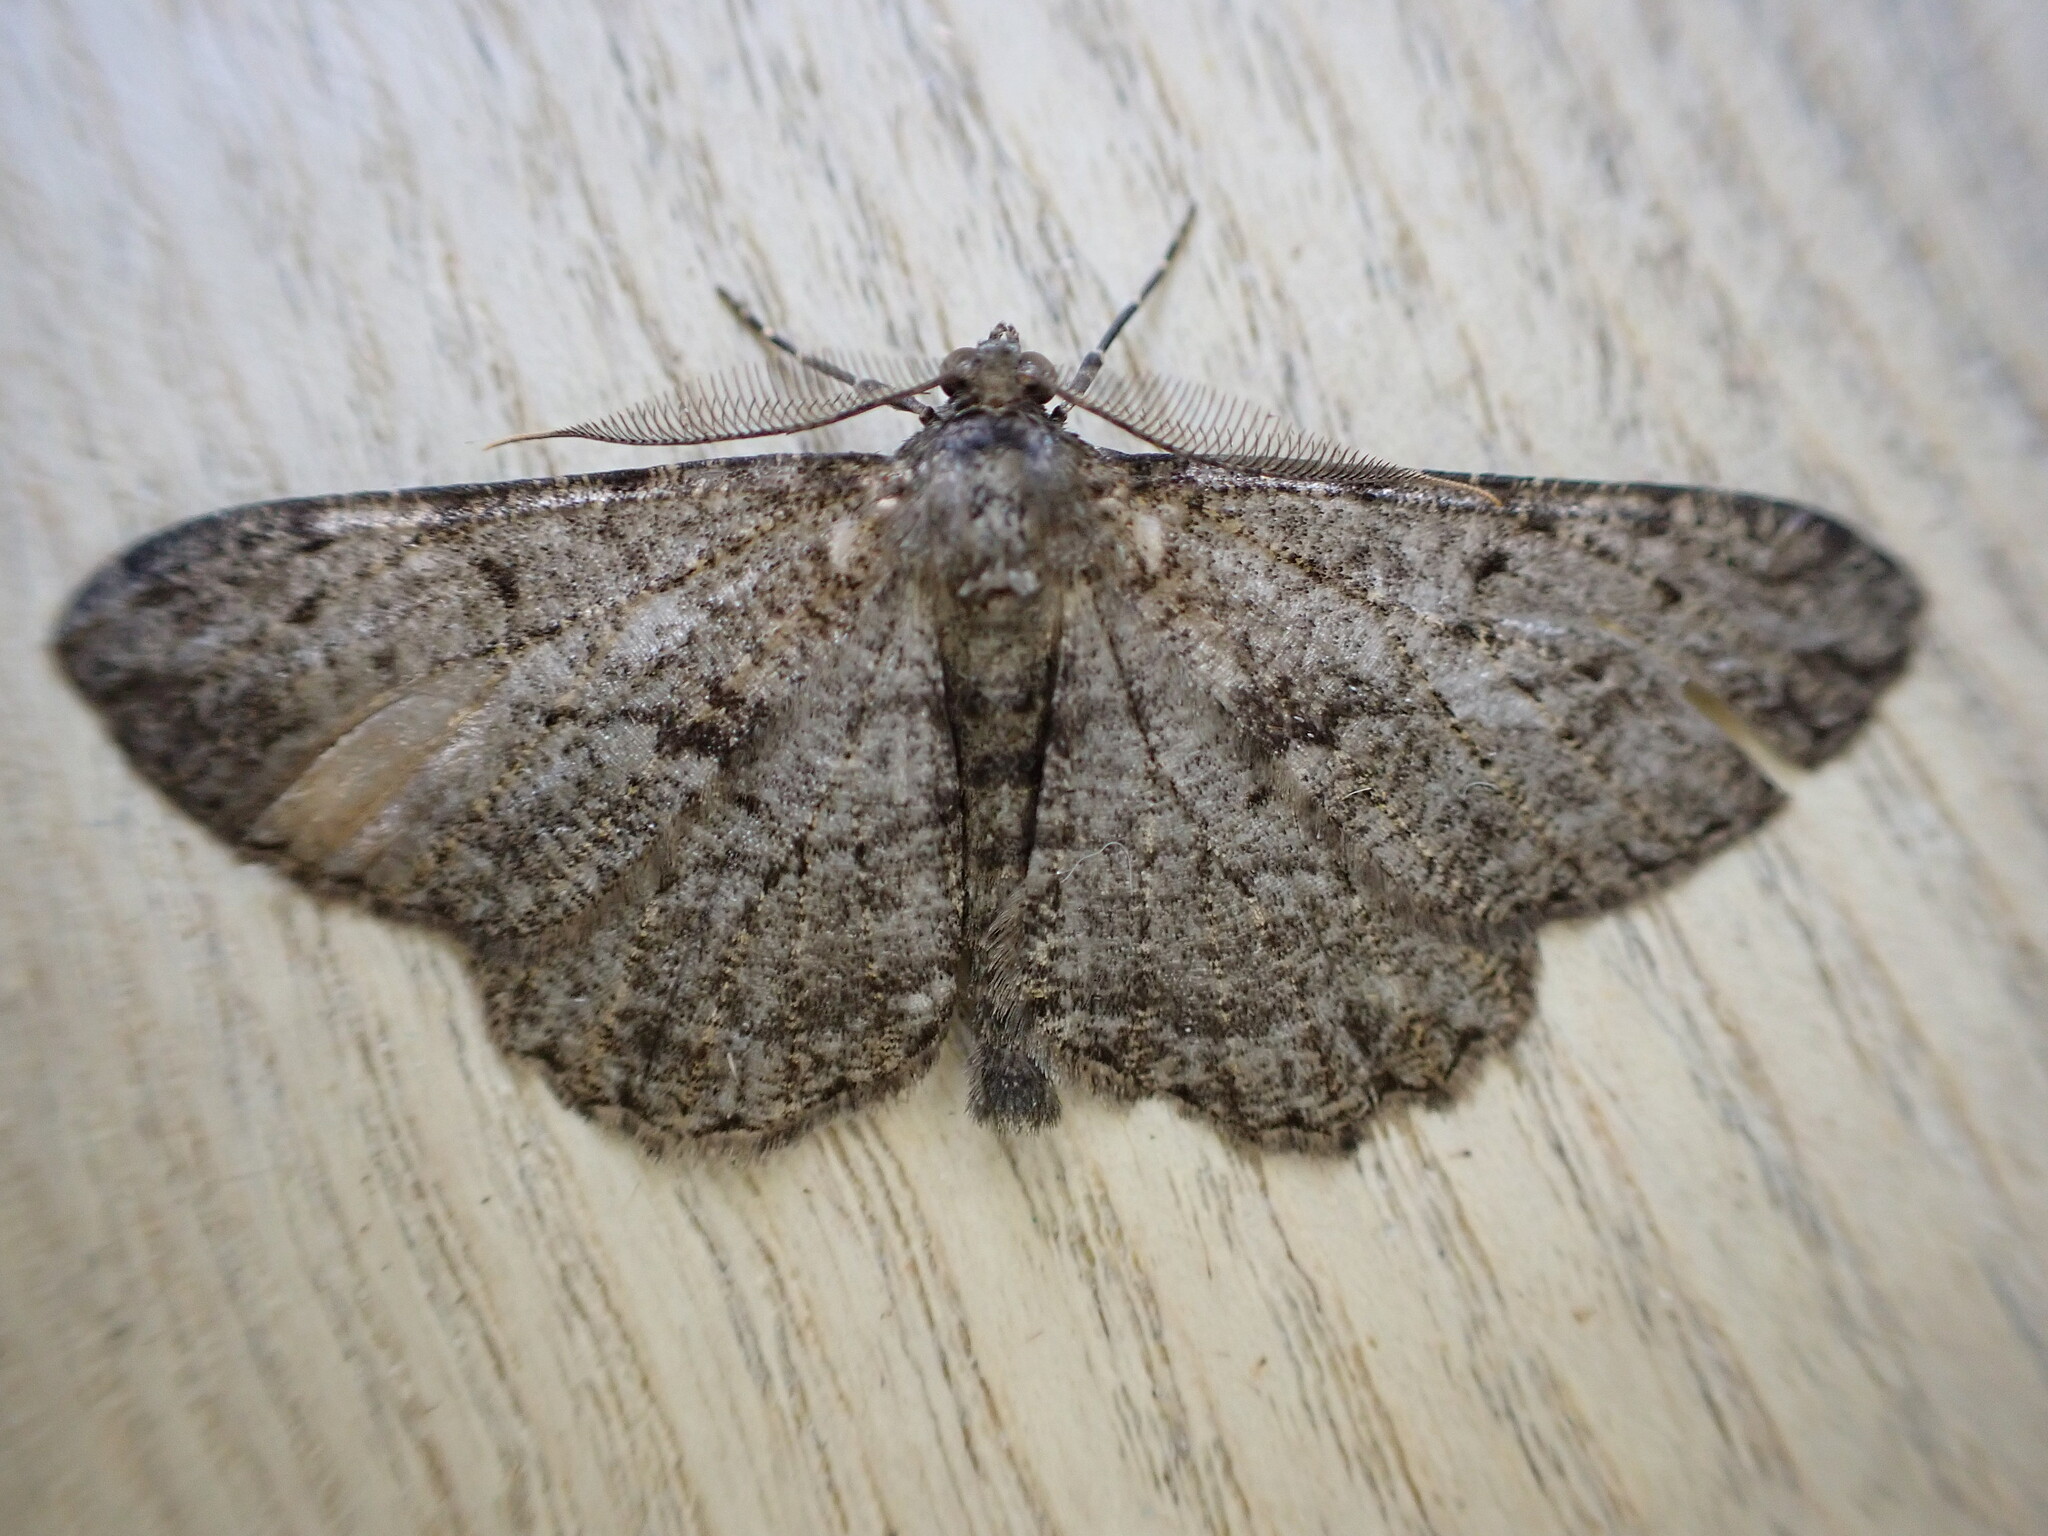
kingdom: Animalia
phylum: Arthropoda
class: Insecta
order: Lepidoptera
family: Geometridae
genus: Peribatodes
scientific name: Peribatodes rhomboidaria
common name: Willow beauty
